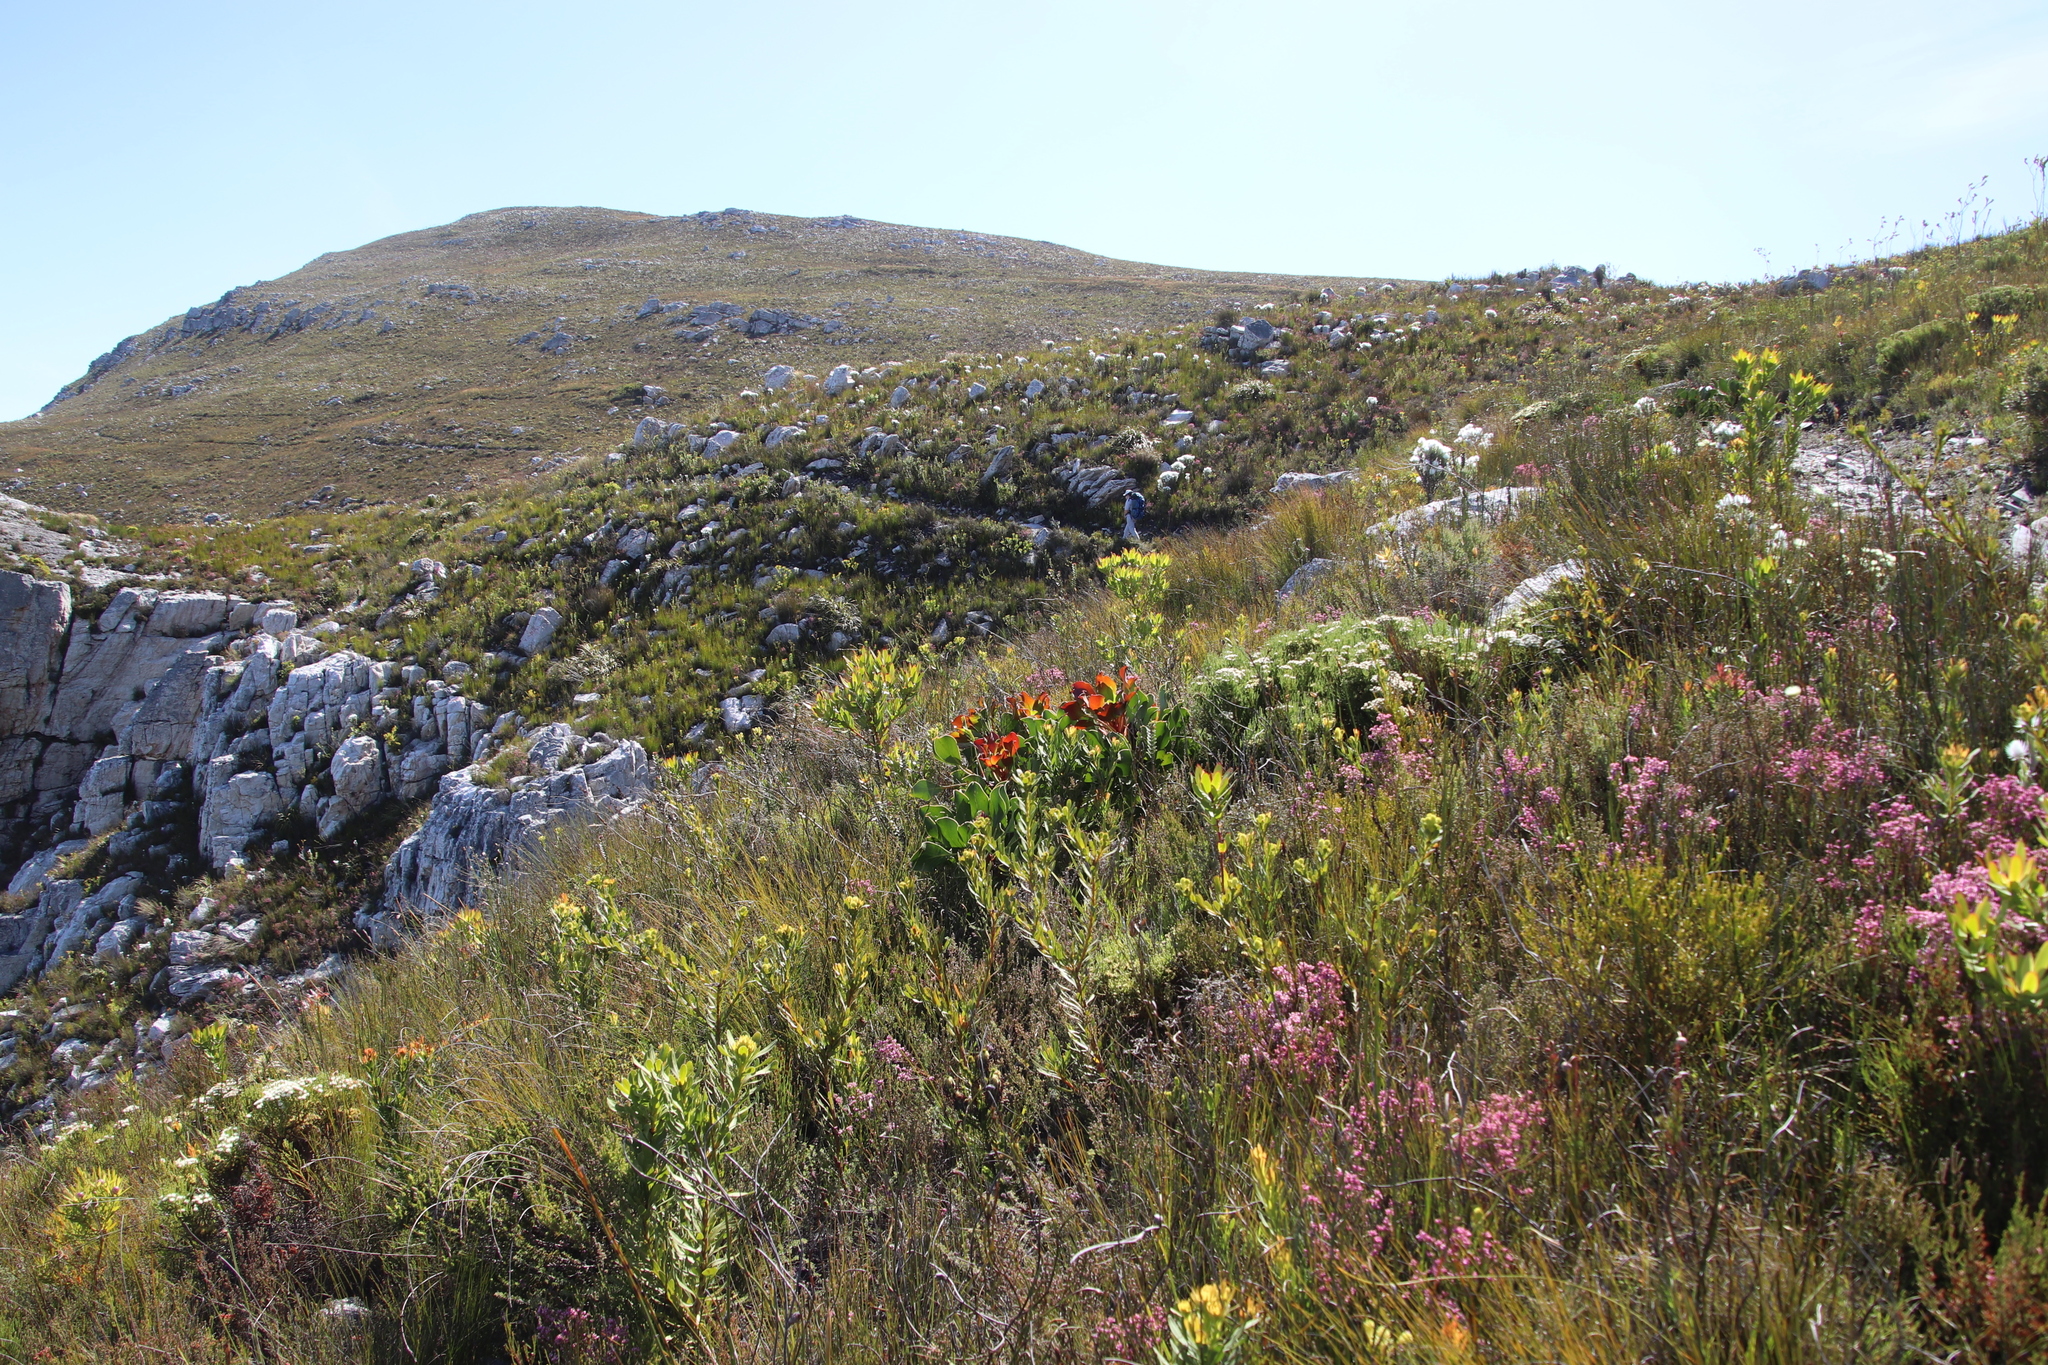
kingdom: Plantae
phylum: Tracheophyta
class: Magnoliopsida
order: Proteales
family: Proteaceae
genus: Protea
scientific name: Protea cynaroides
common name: King protea
